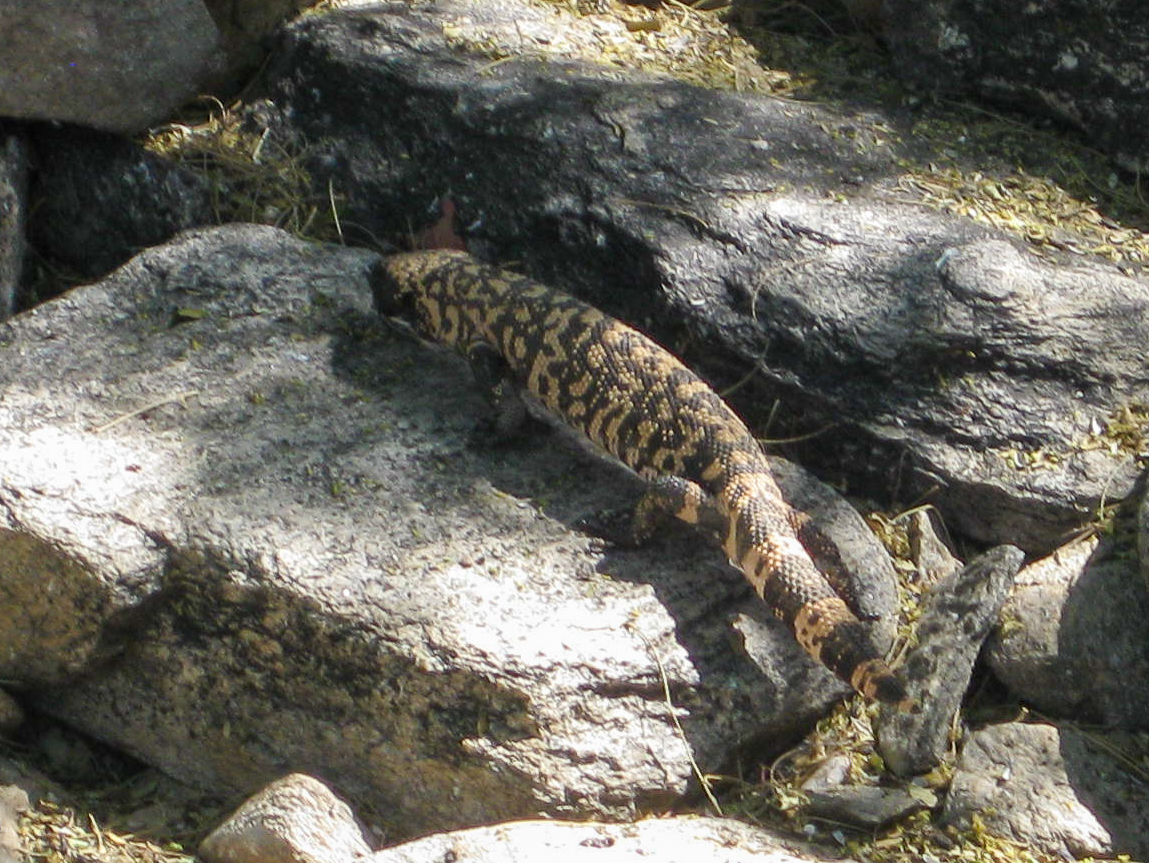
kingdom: Animalia
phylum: Chordata
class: Squamata
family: Helodermatidae
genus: Heloderma
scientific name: Heloderma suspectum
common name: Gila monster
